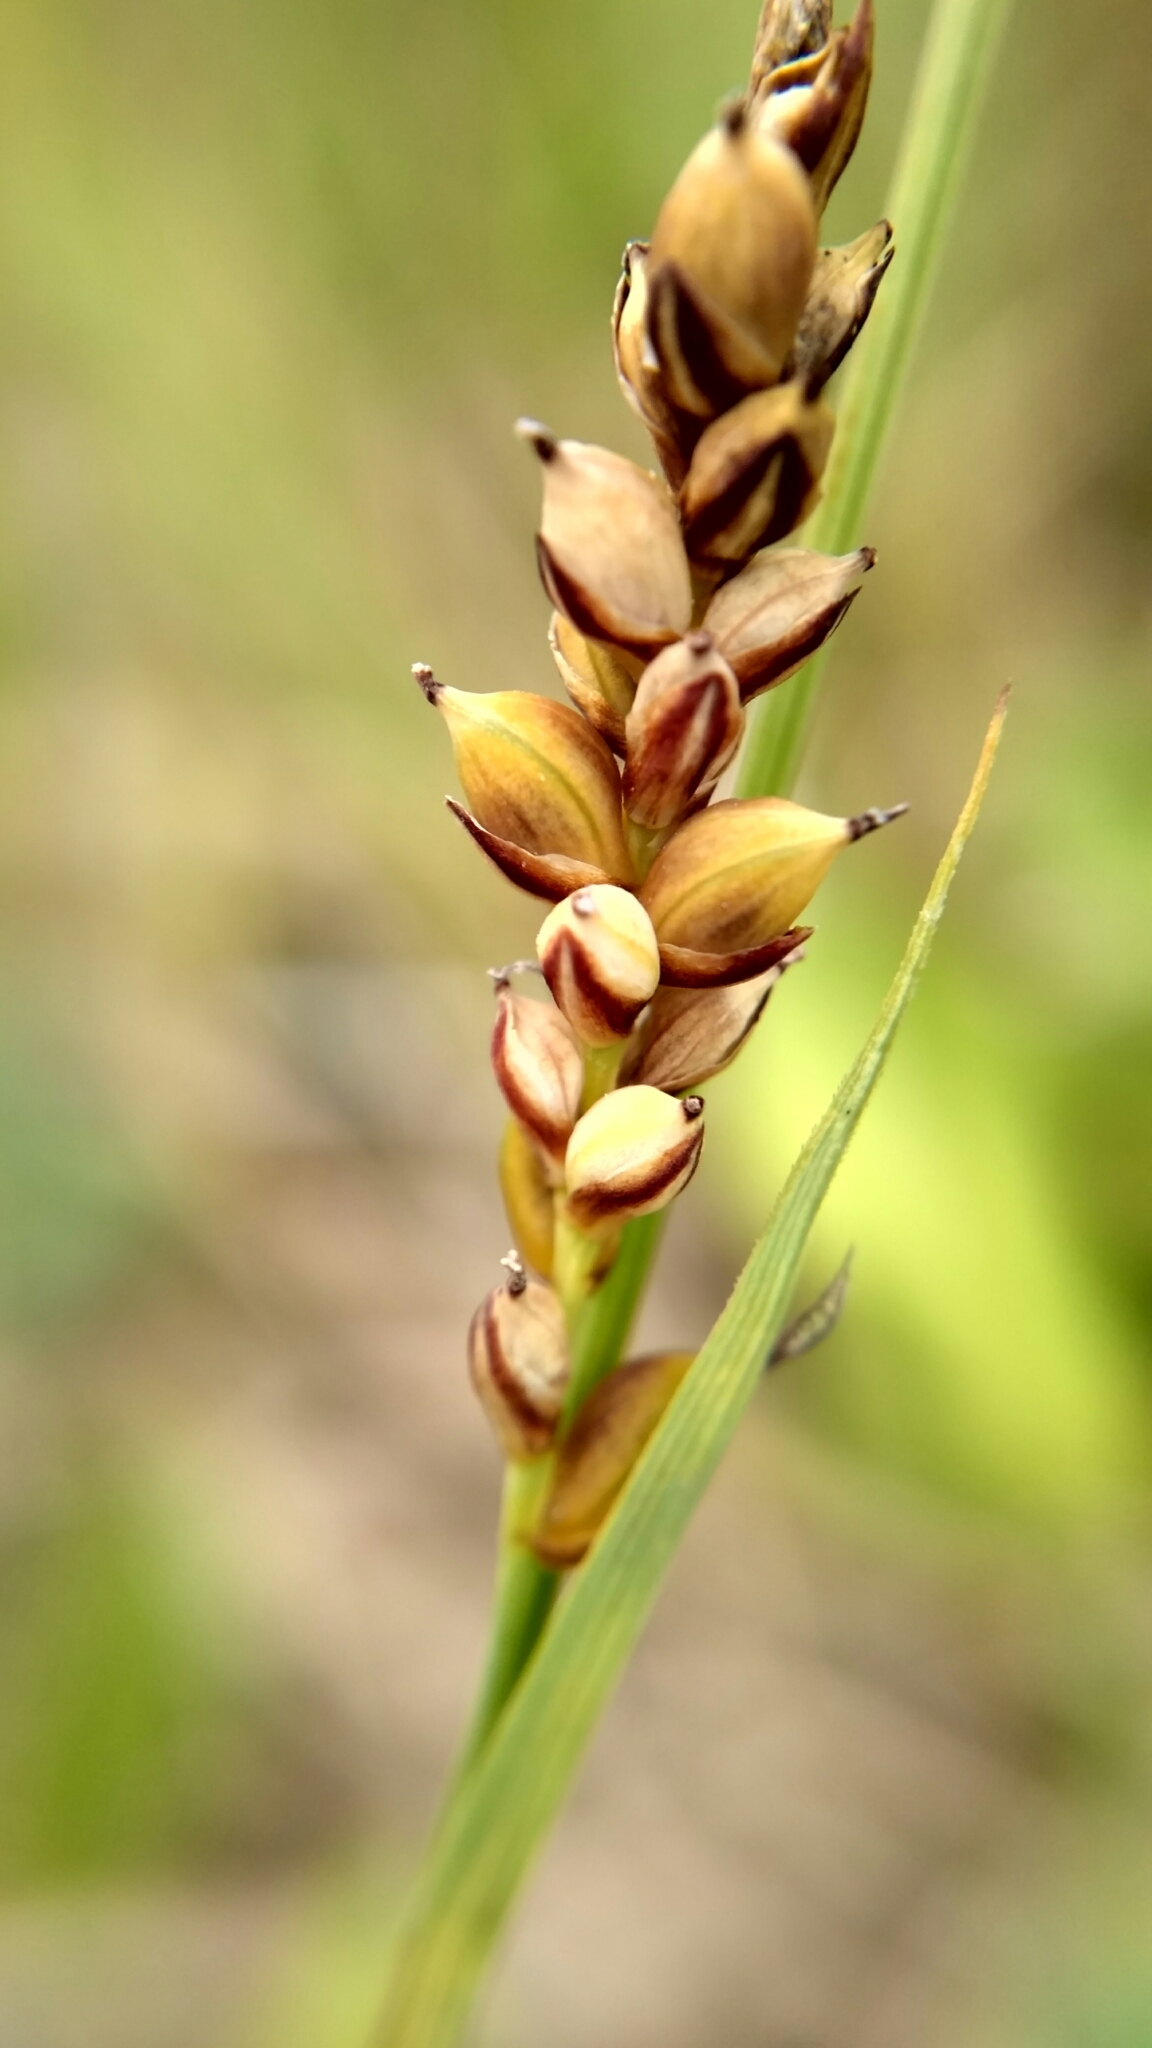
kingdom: Plantae
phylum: Tracheophyta
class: Liliopsida
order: Poales
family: Cyperaceae
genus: Carex
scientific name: Carex panicea
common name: Carnation sedge
